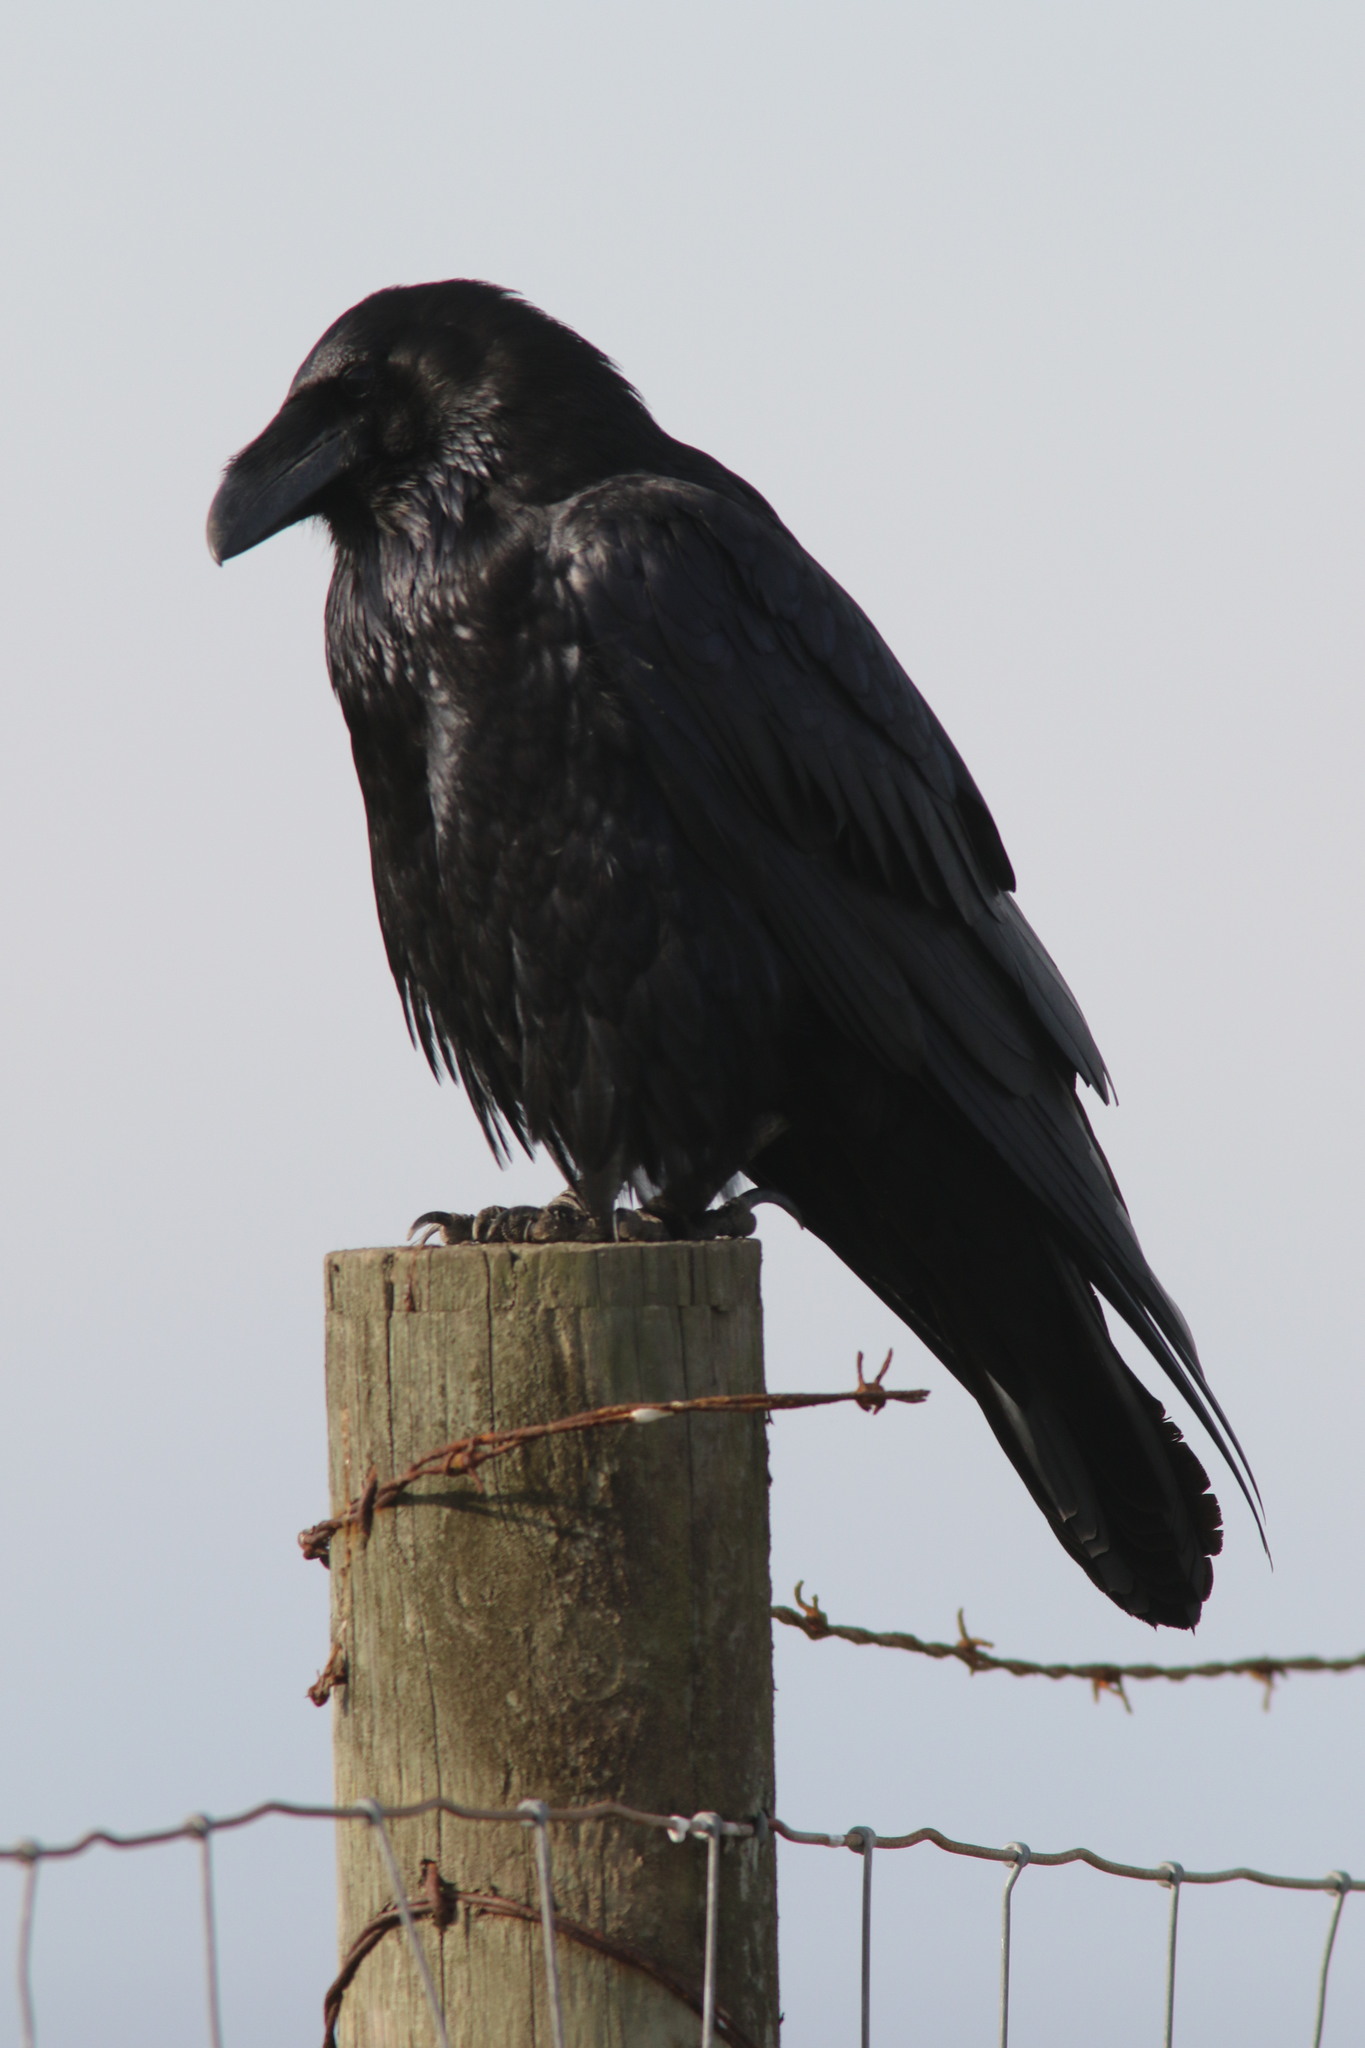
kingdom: Animalia
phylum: Chordata
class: Aves
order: Passeriformes
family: Corvidae
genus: Corvus
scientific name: Corvus corax
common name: Common raven
